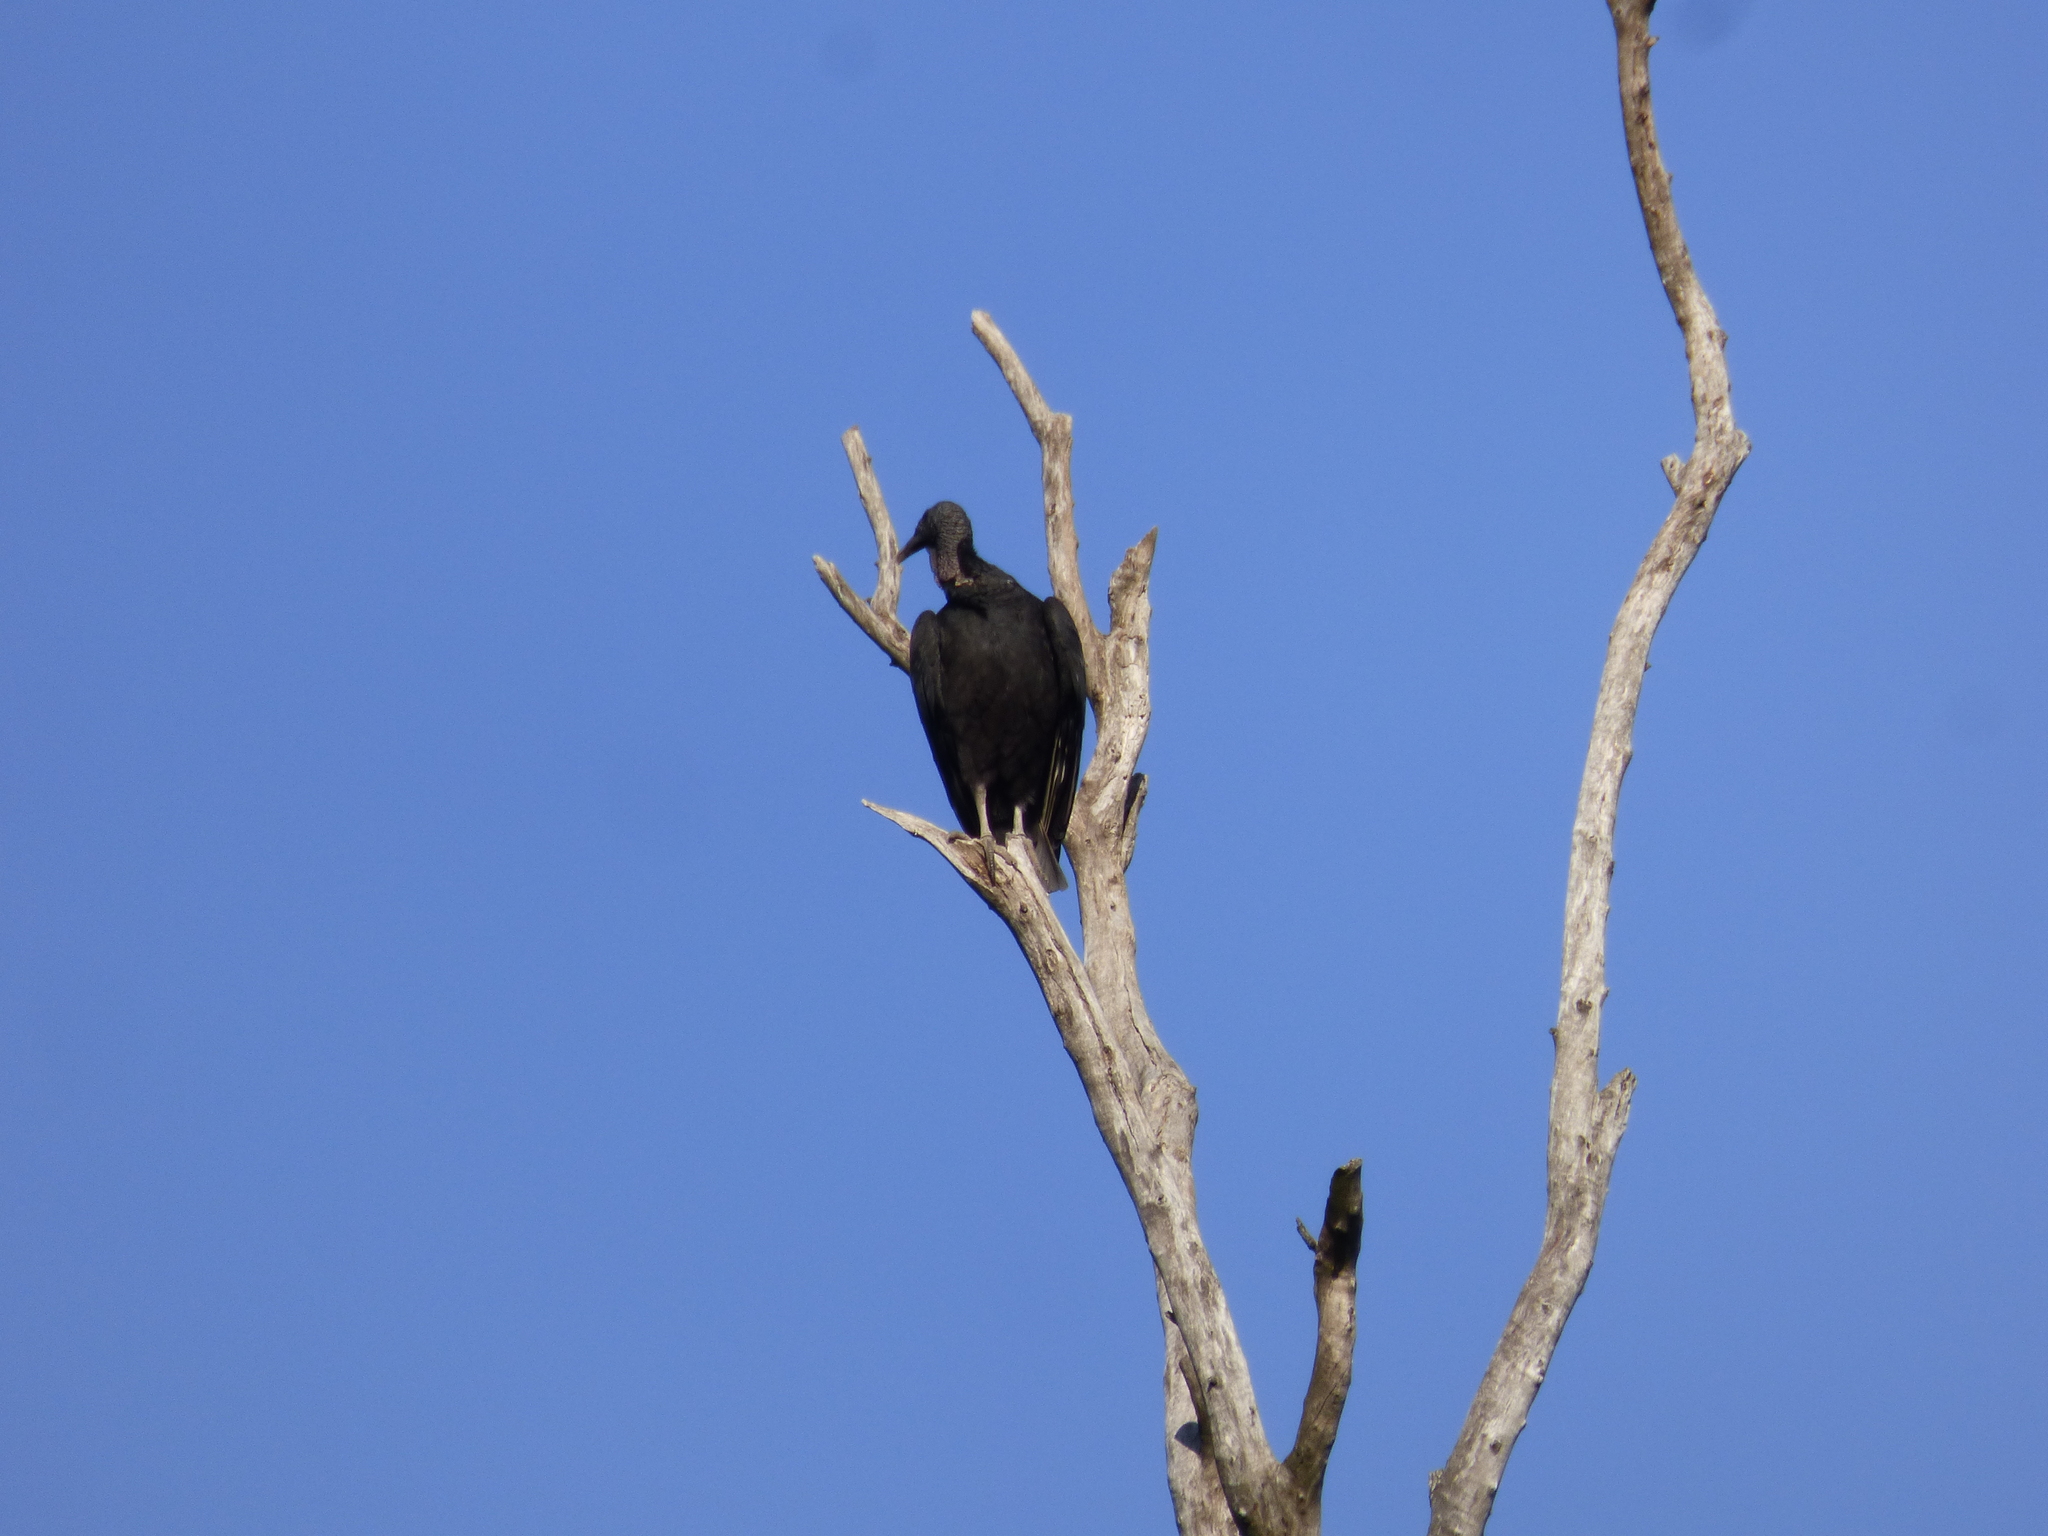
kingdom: Animalia
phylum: Chordata
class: Aves
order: Accipitriformes
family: Cathartidae
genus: Coragyps
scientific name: Coragyps atratus
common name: Black vulture
